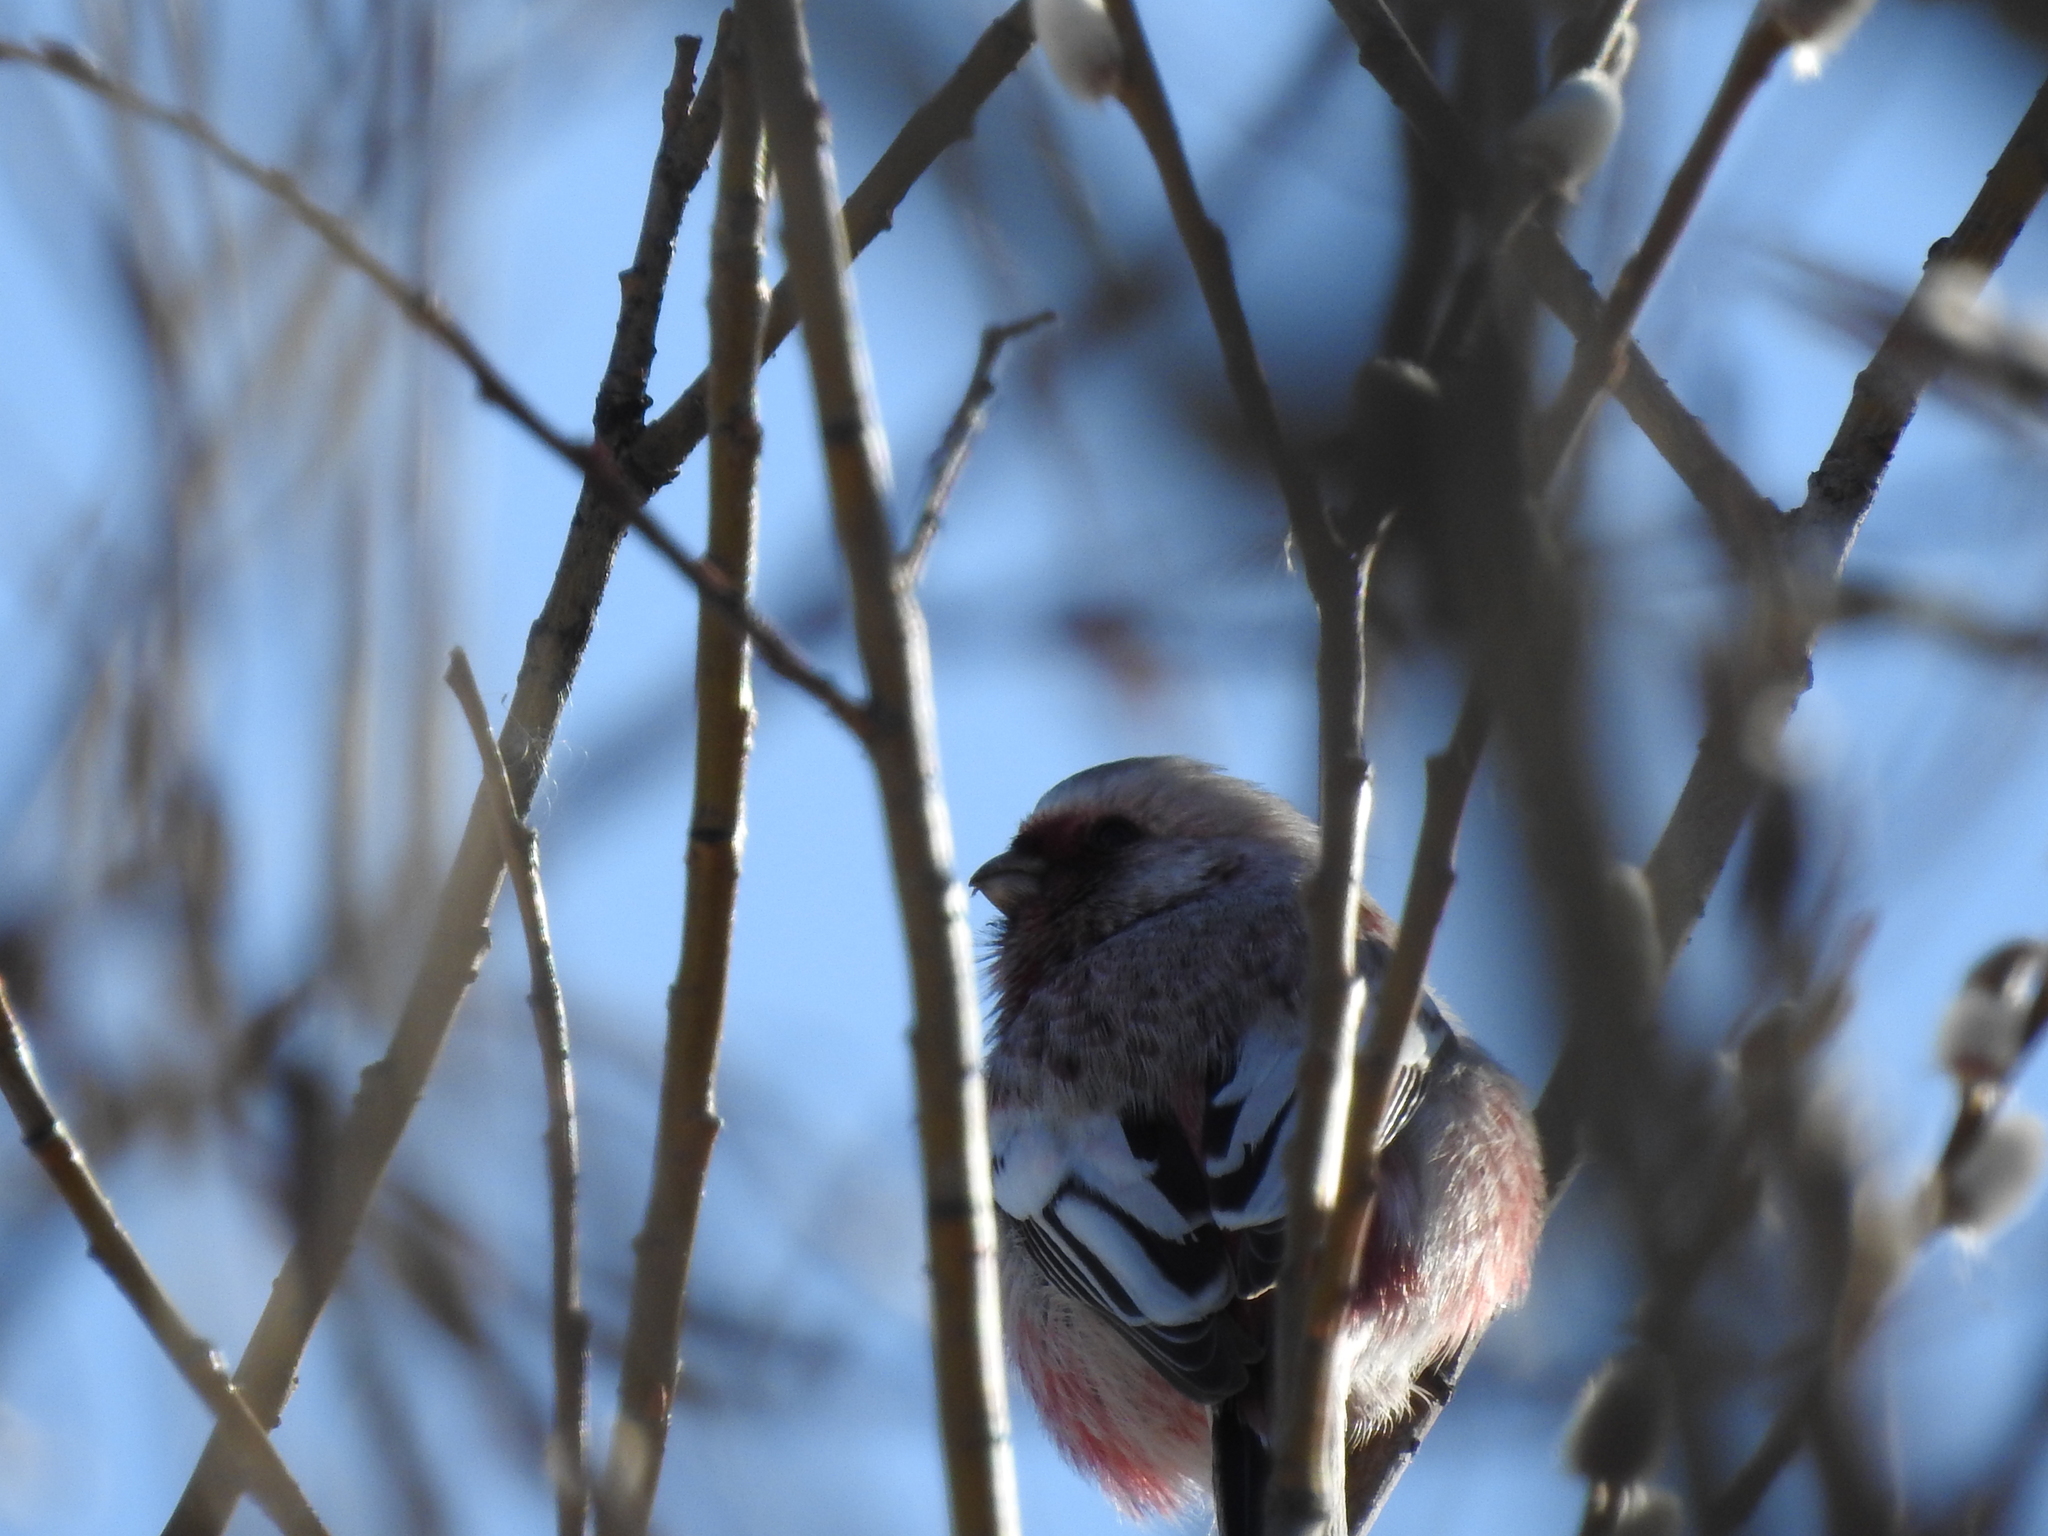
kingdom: Animalia
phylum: Chordata
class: Aves
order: Passeriformes
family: Fringillidae
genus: Carpodacus
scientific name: Carpodacus sibiricus
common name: Long-tailed rosefinch
